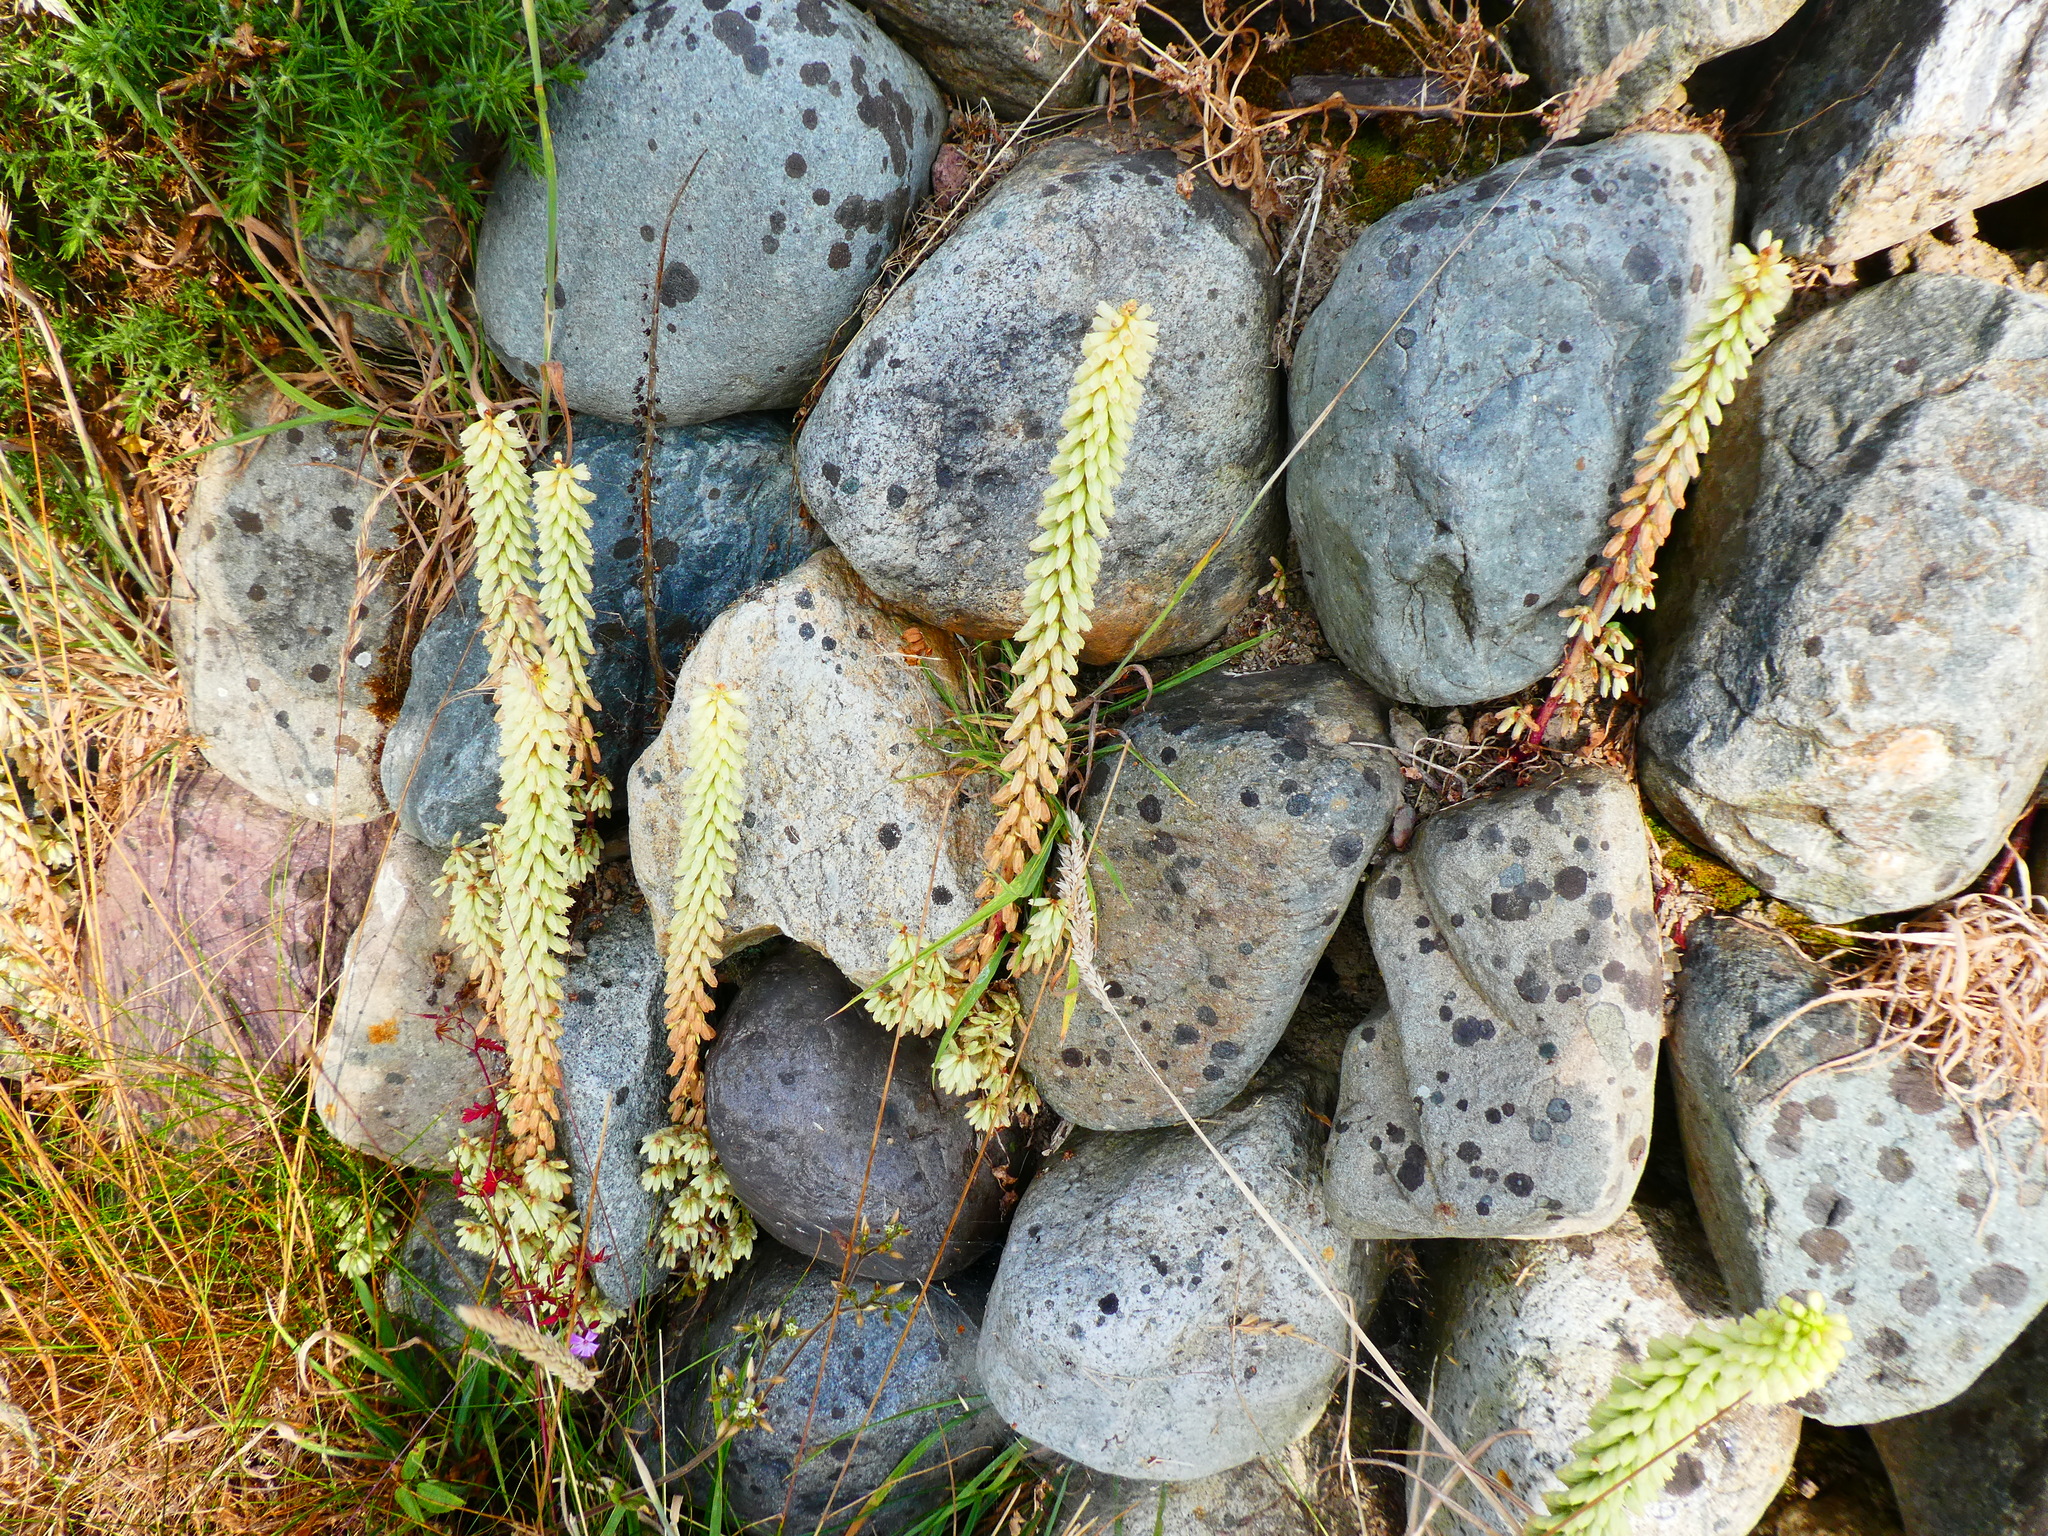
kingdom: Plantae
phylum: Tracheophyta
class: Magnoliopsida
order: Saxifragales
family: Crassulaceae
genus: Umbilicus
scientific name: Umbilicus rupestris
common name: Navelwort
